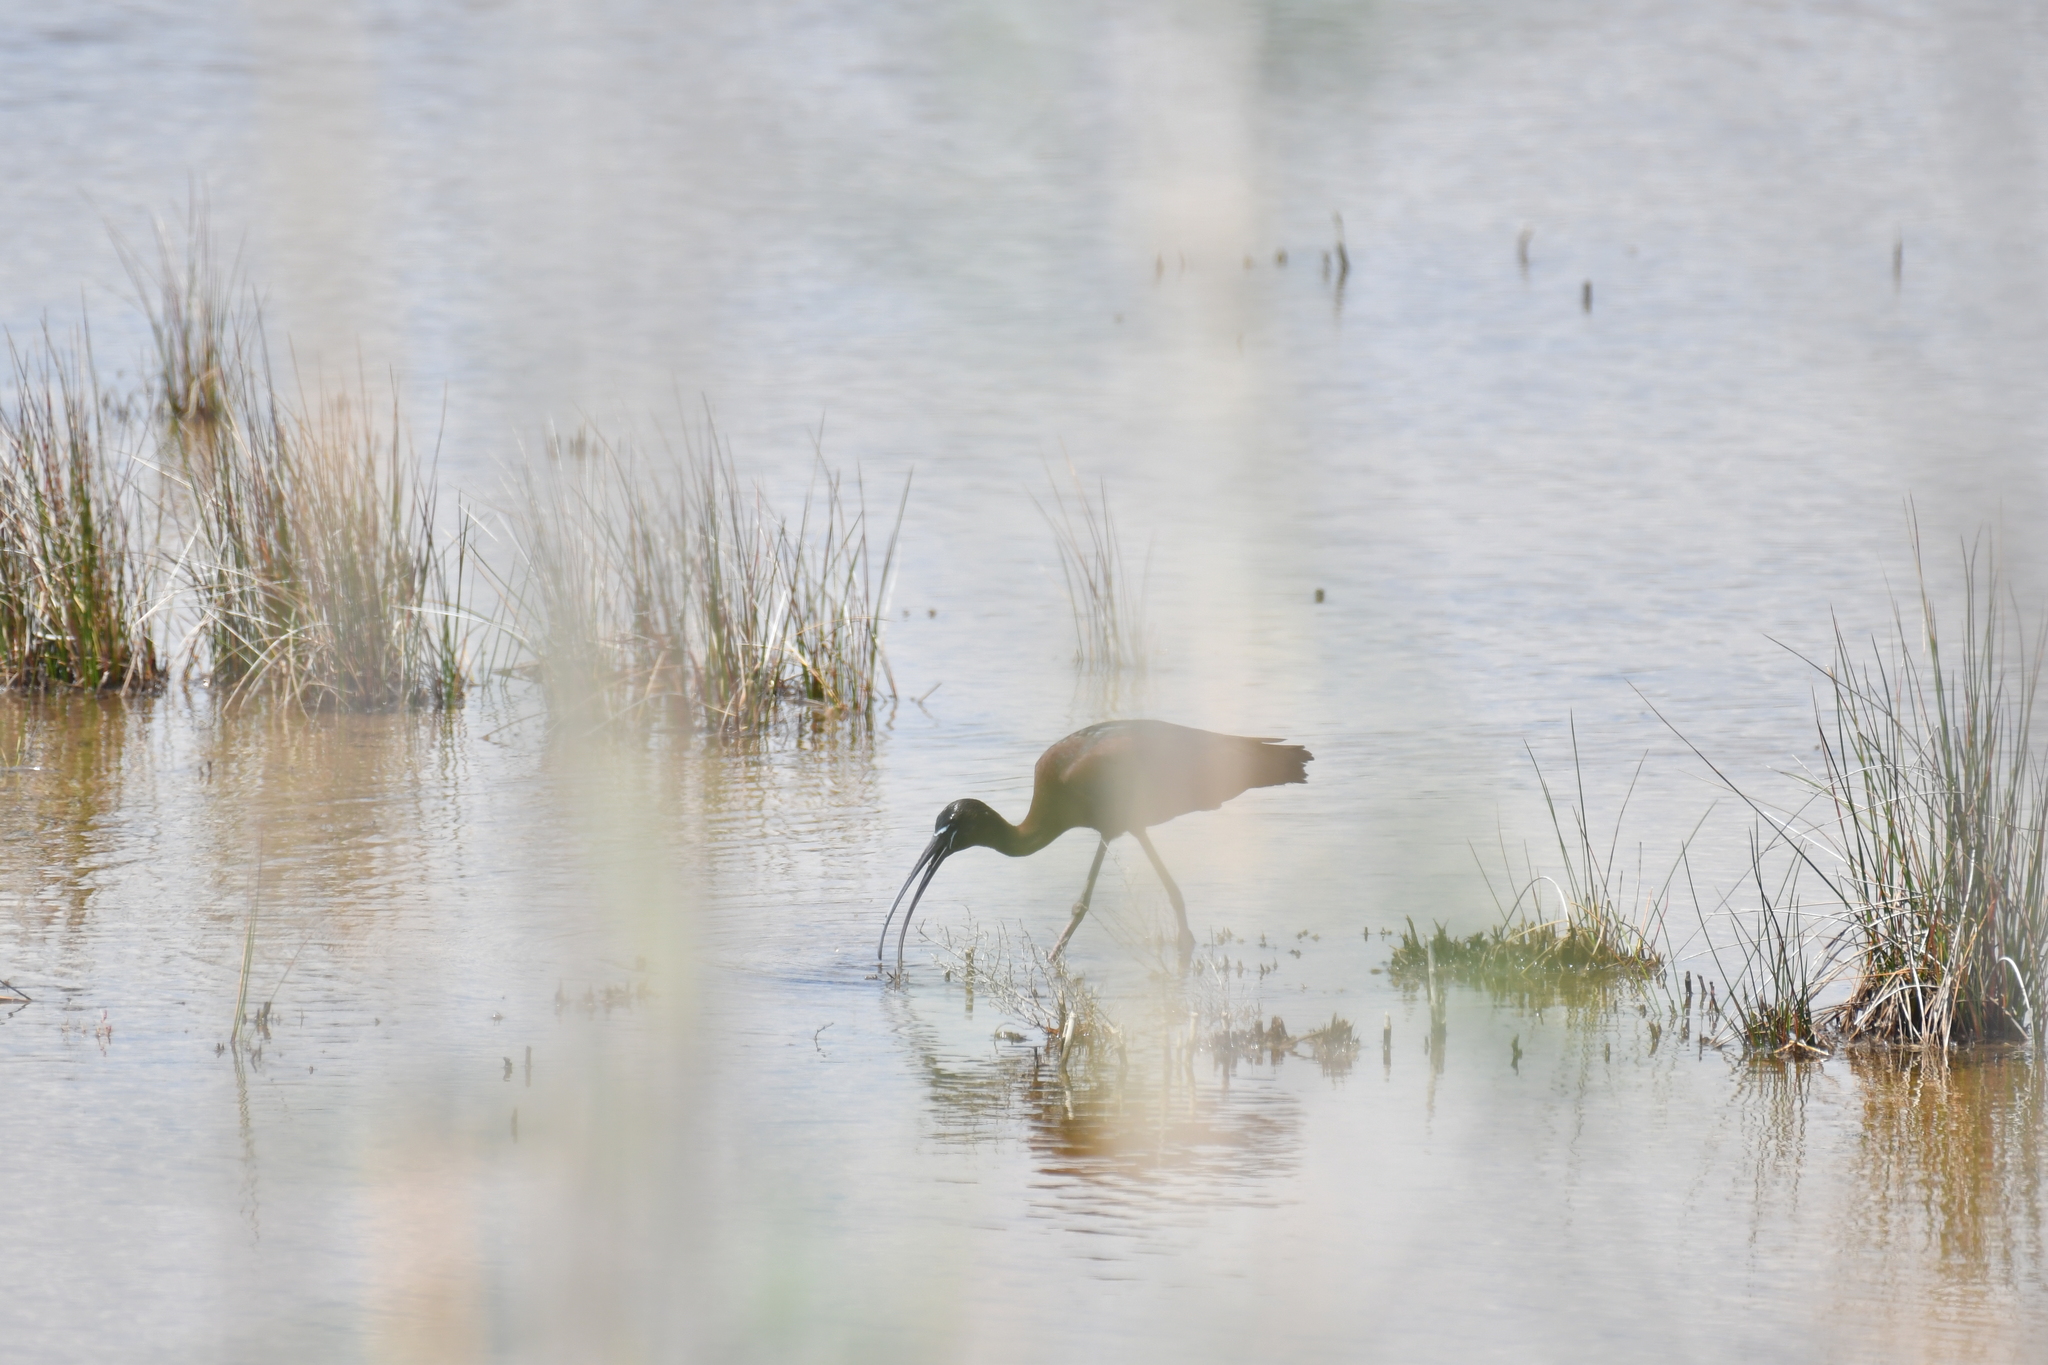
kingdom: Animalia
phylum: Chordata
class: Aves
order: Pelecaniformes
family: Threskiornithidae
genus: Plegadis
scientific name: Plegadis falcinellus
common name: Glossy ibis
